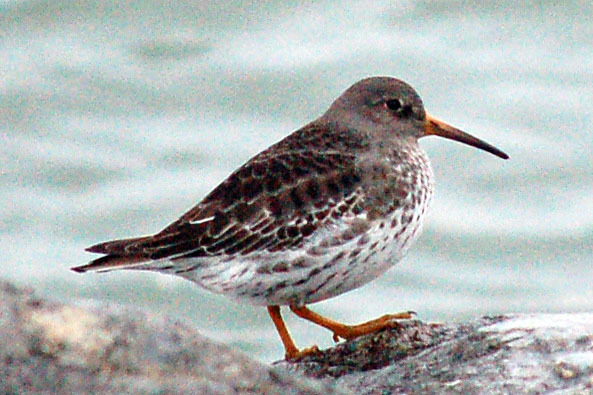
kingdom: Animalia
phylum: Chordata
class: Aves
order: Charadriiformes
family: Scolopacidae
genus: Calidris
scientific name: Calidris maritima
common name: Purple sandpiper
